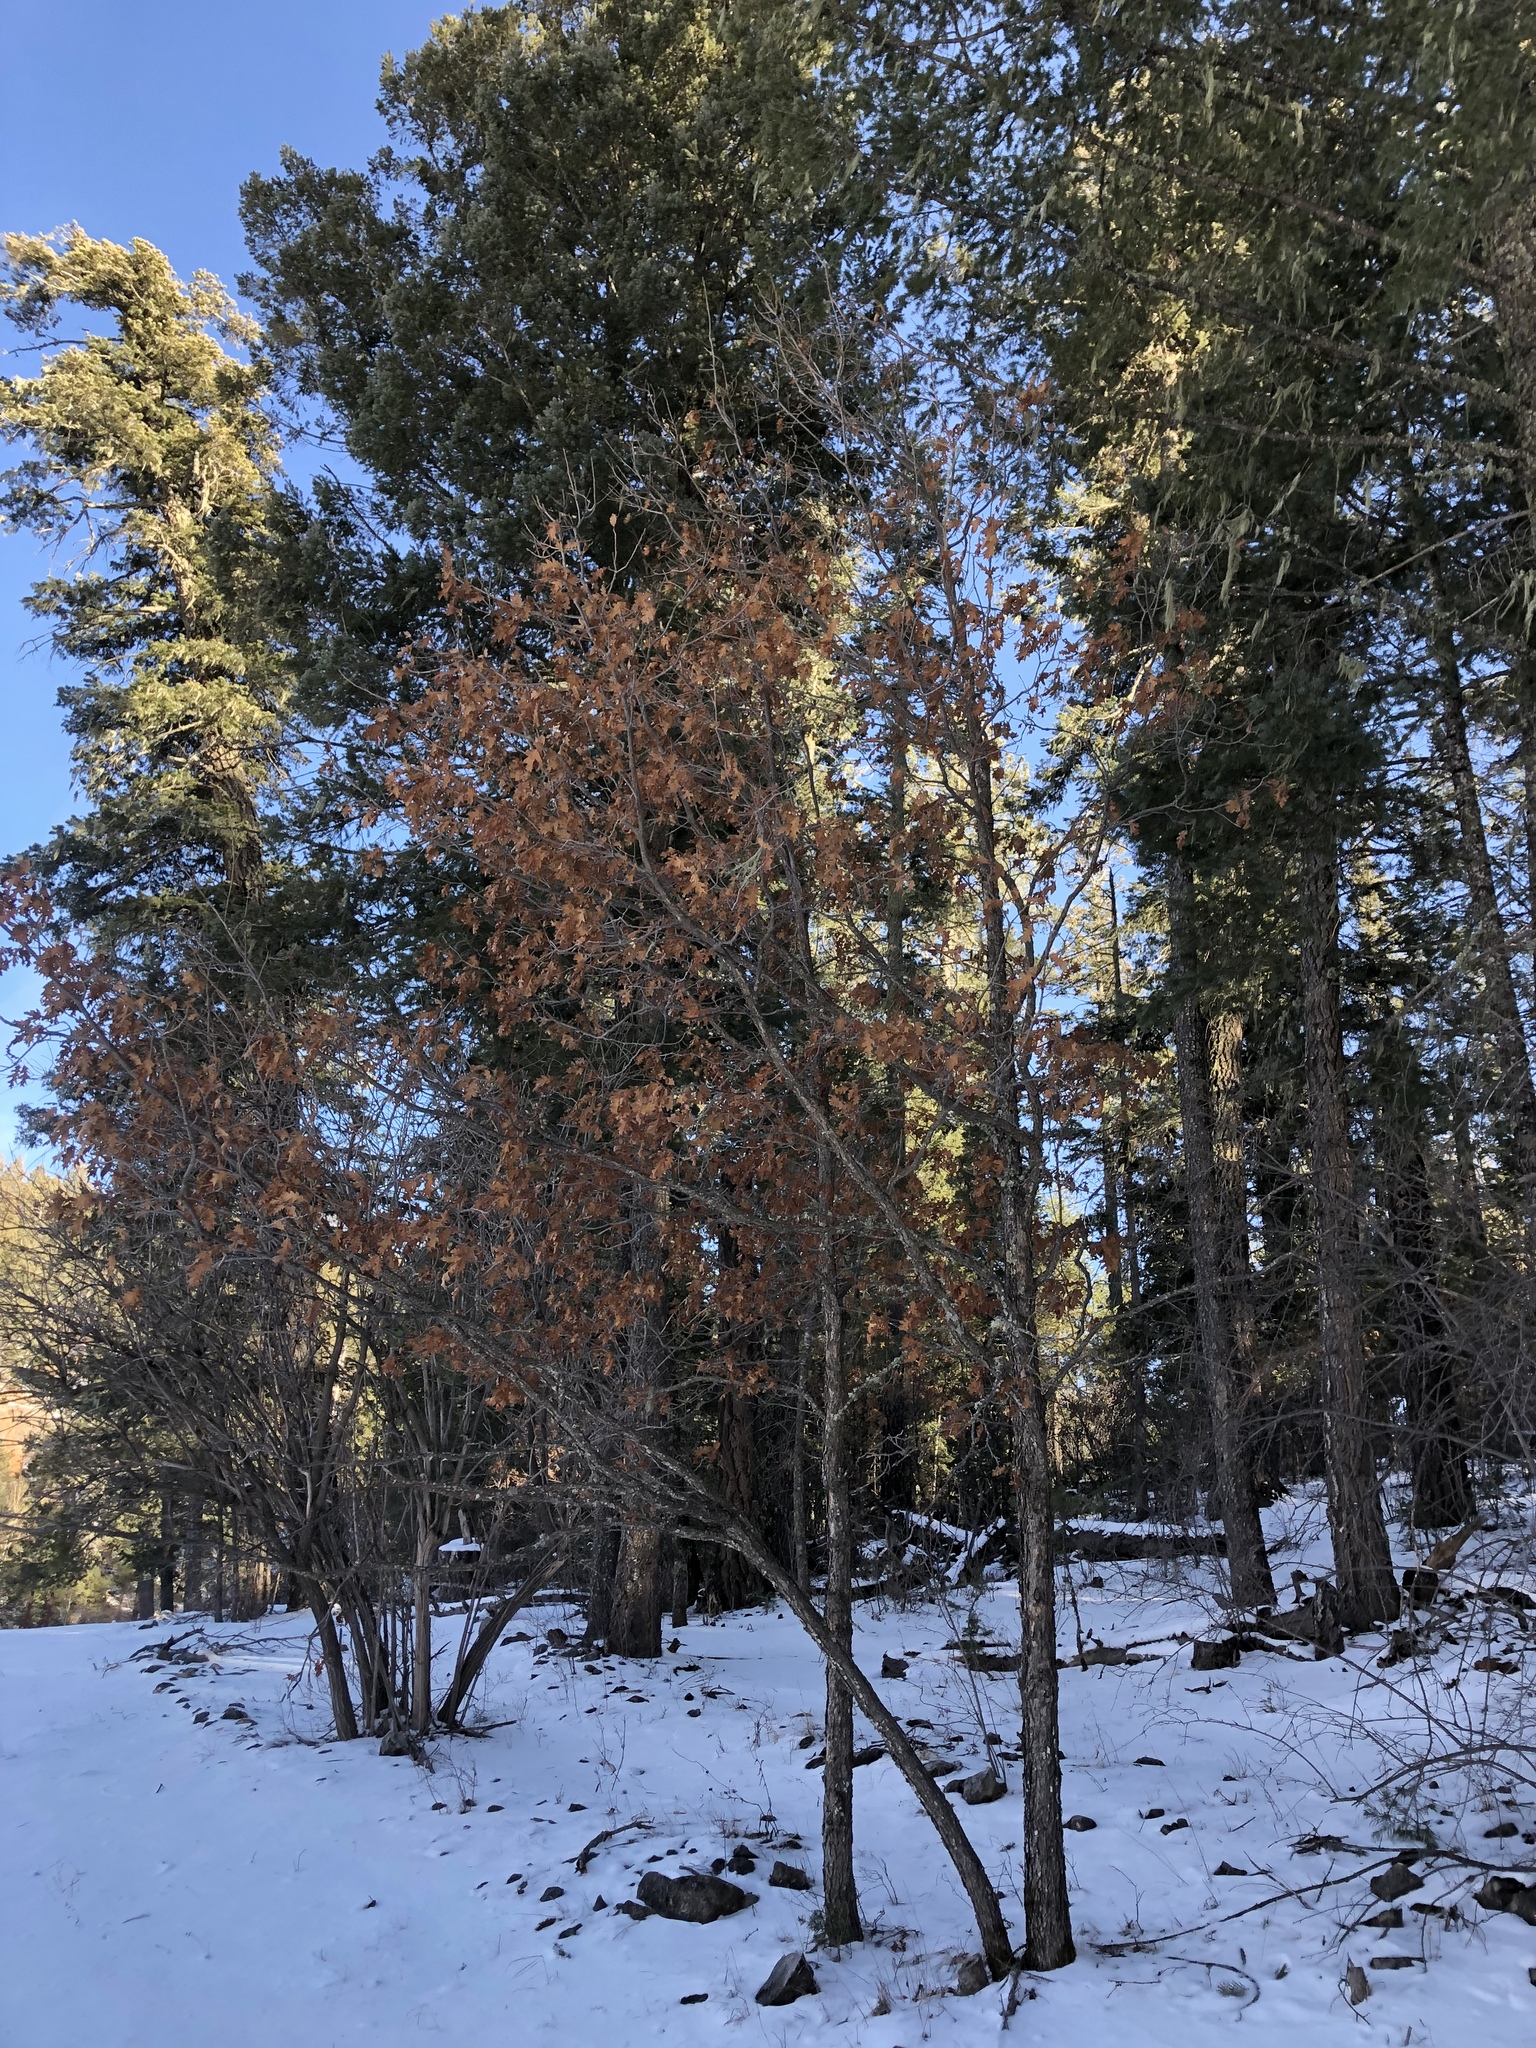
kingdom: Plantae
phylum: Tracheophyta
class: Magnoliopsida
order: Fagales
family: Fagaceae
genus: Quercus
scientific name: Quercus gambelii
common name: Gambel oak
